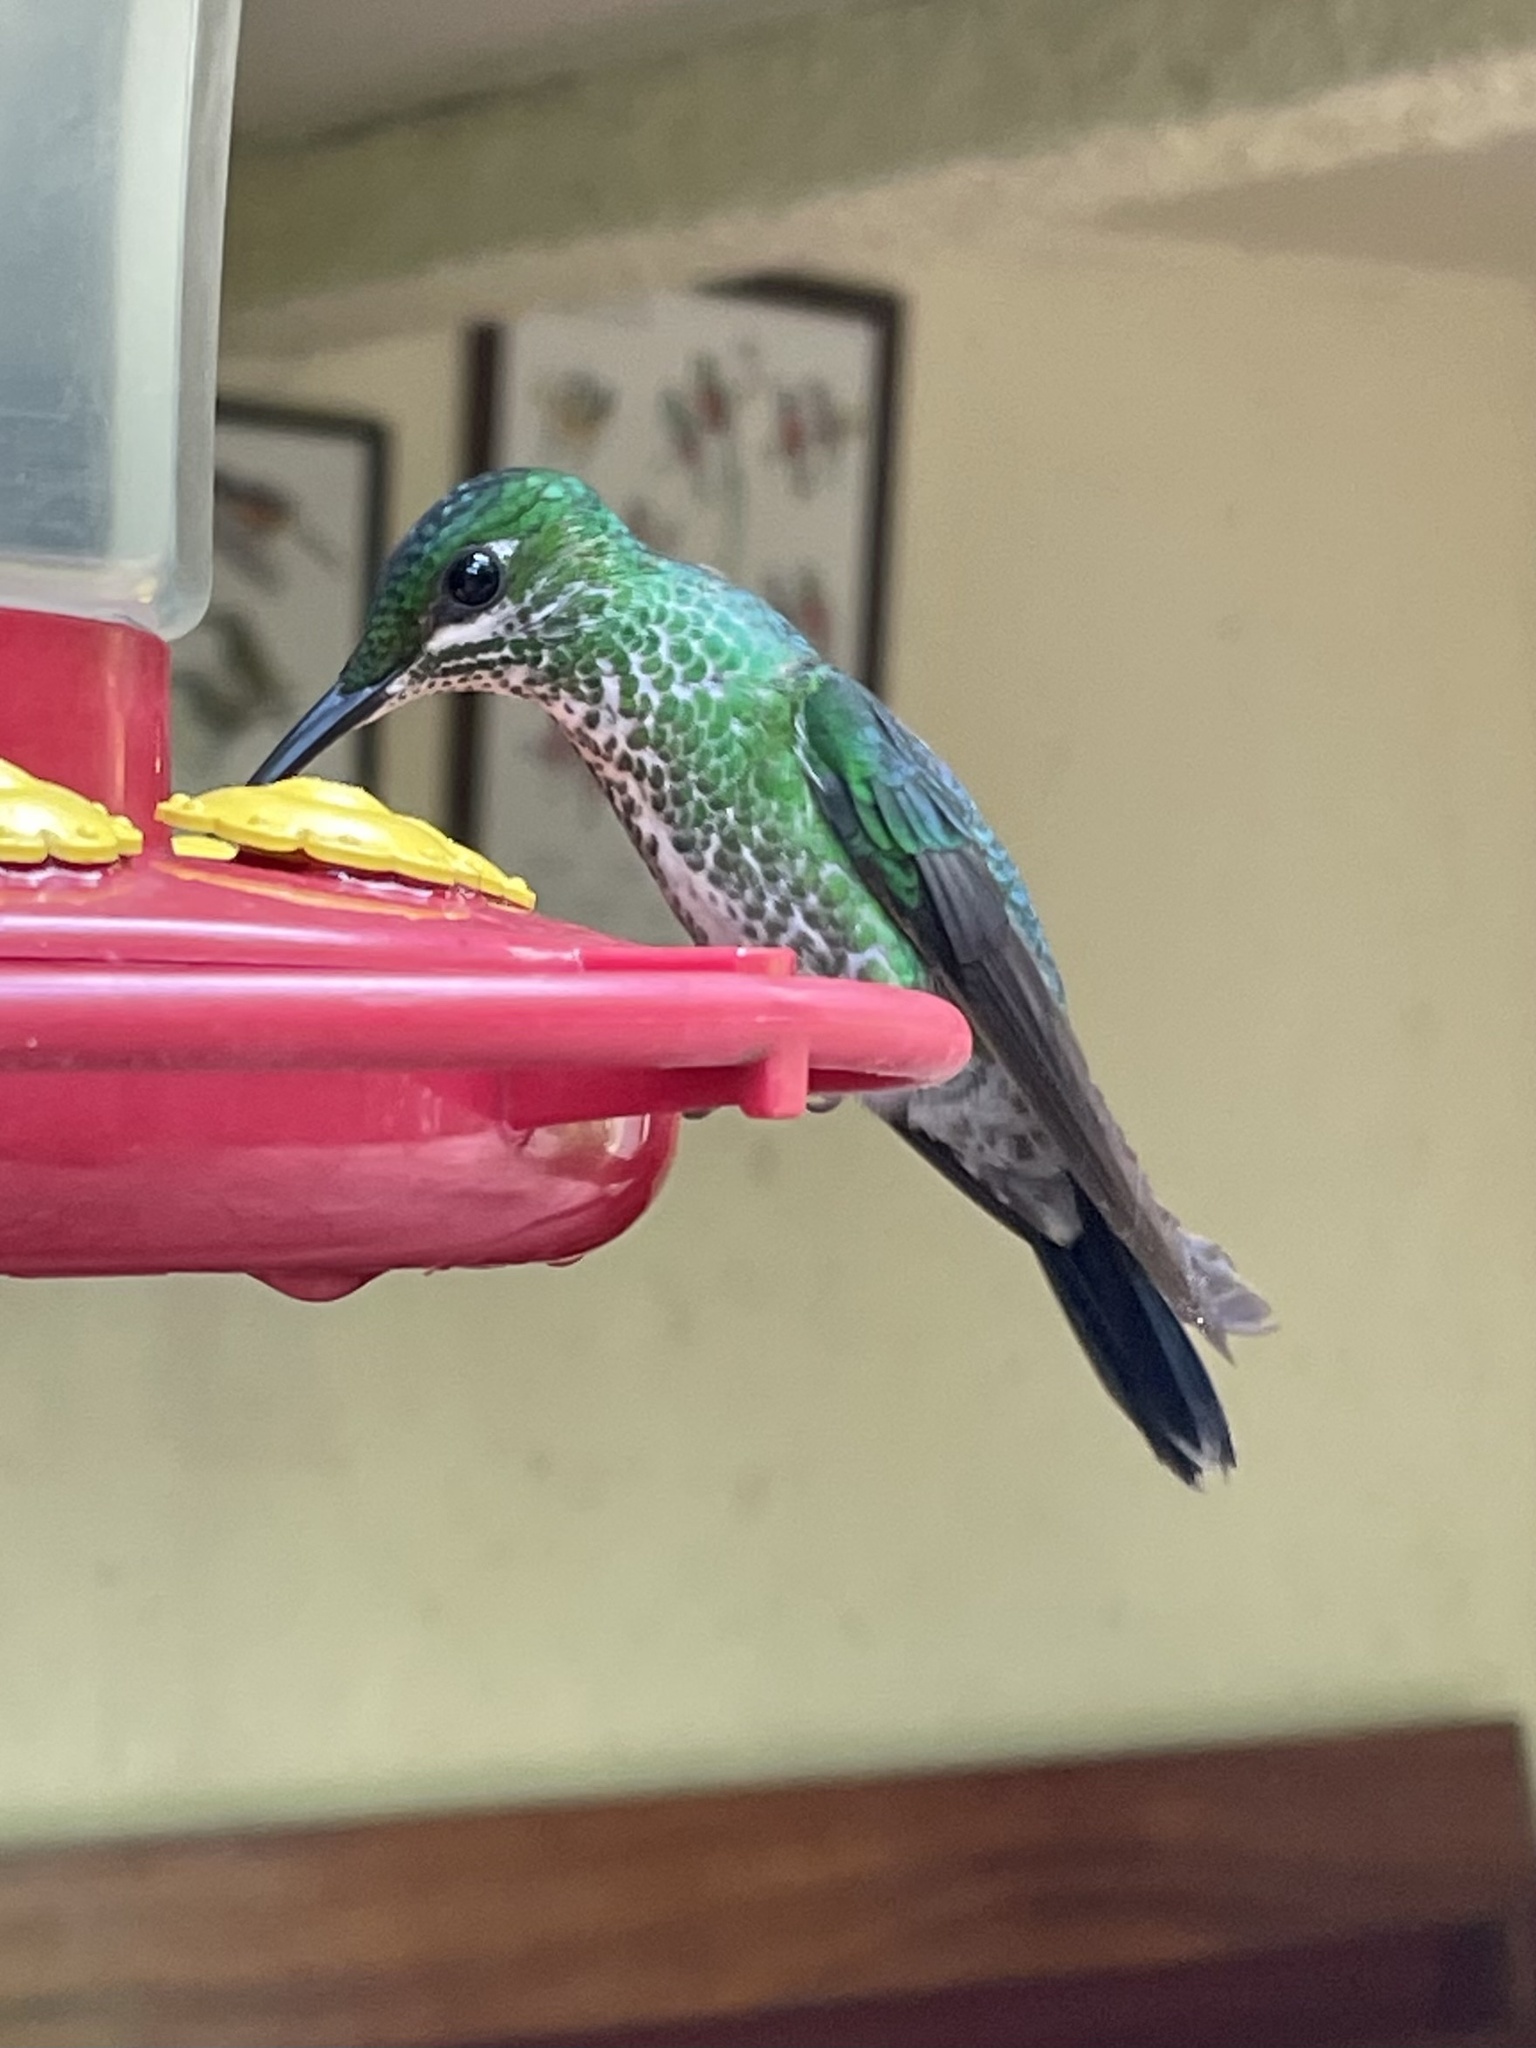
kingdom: Animalia
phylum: Chordata
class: Aves
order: Apodiformes
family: Trochilidae
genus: Heliodoxa
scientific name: Heliodoxa jacula
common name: Green-crowned brilliant
